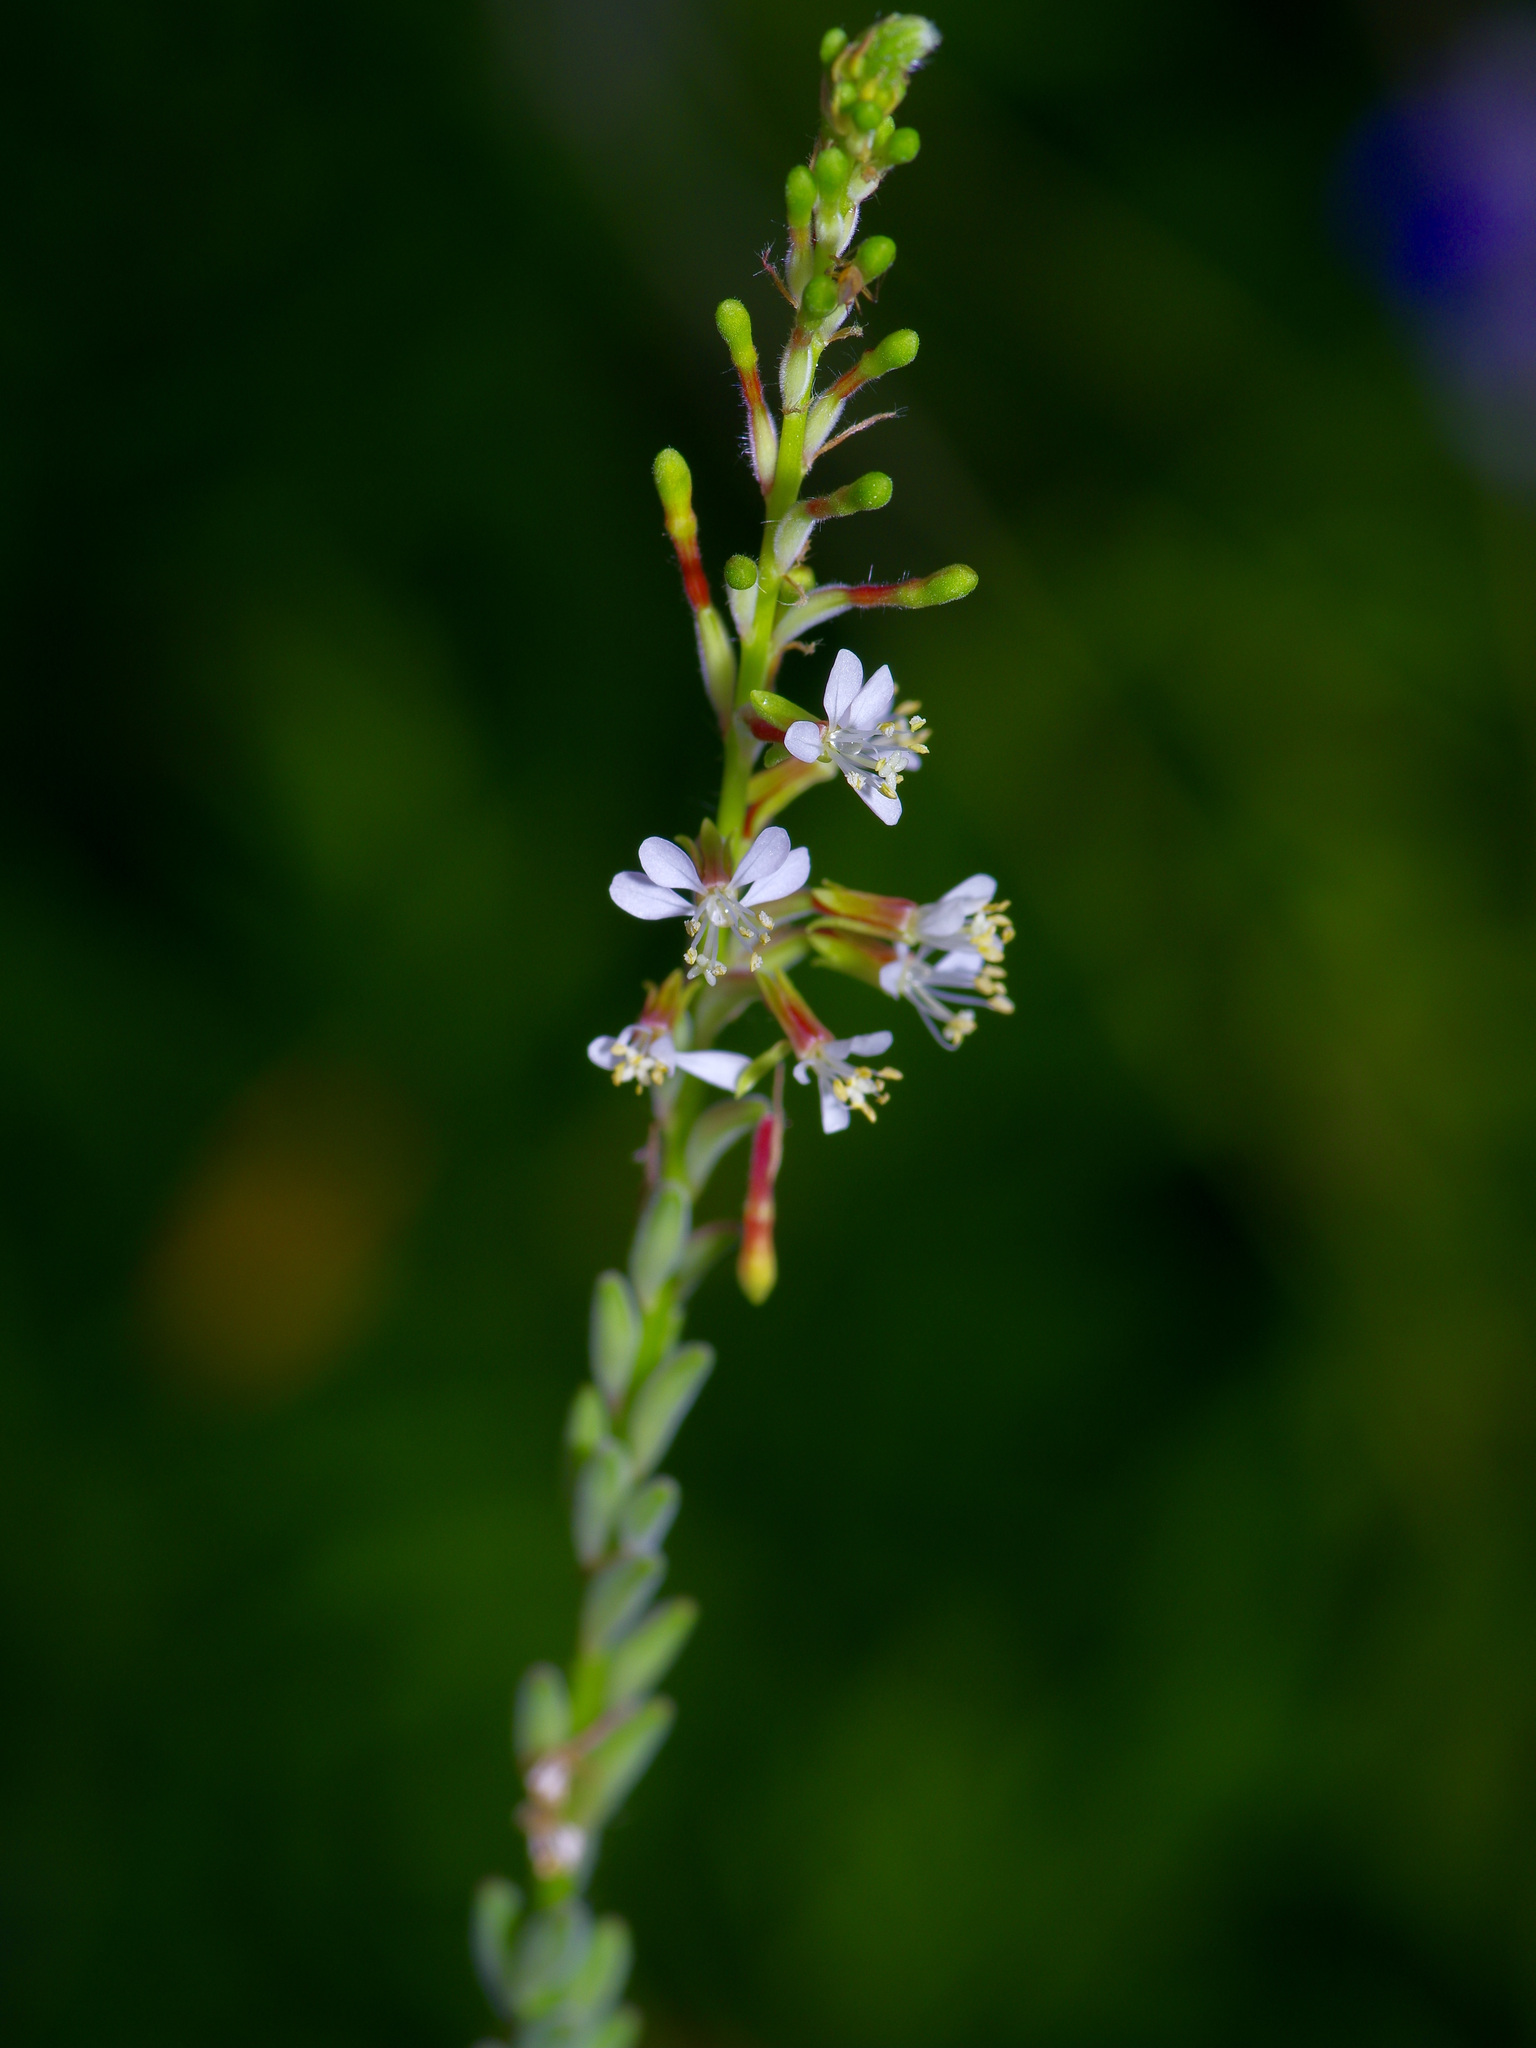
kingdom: Plantae
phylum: Tracheophyta
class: Magnoliopsida
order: Myrtales
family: Onagraceae
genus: Oenothera
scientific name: Oenothera curtiflora
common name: Velvetweed
